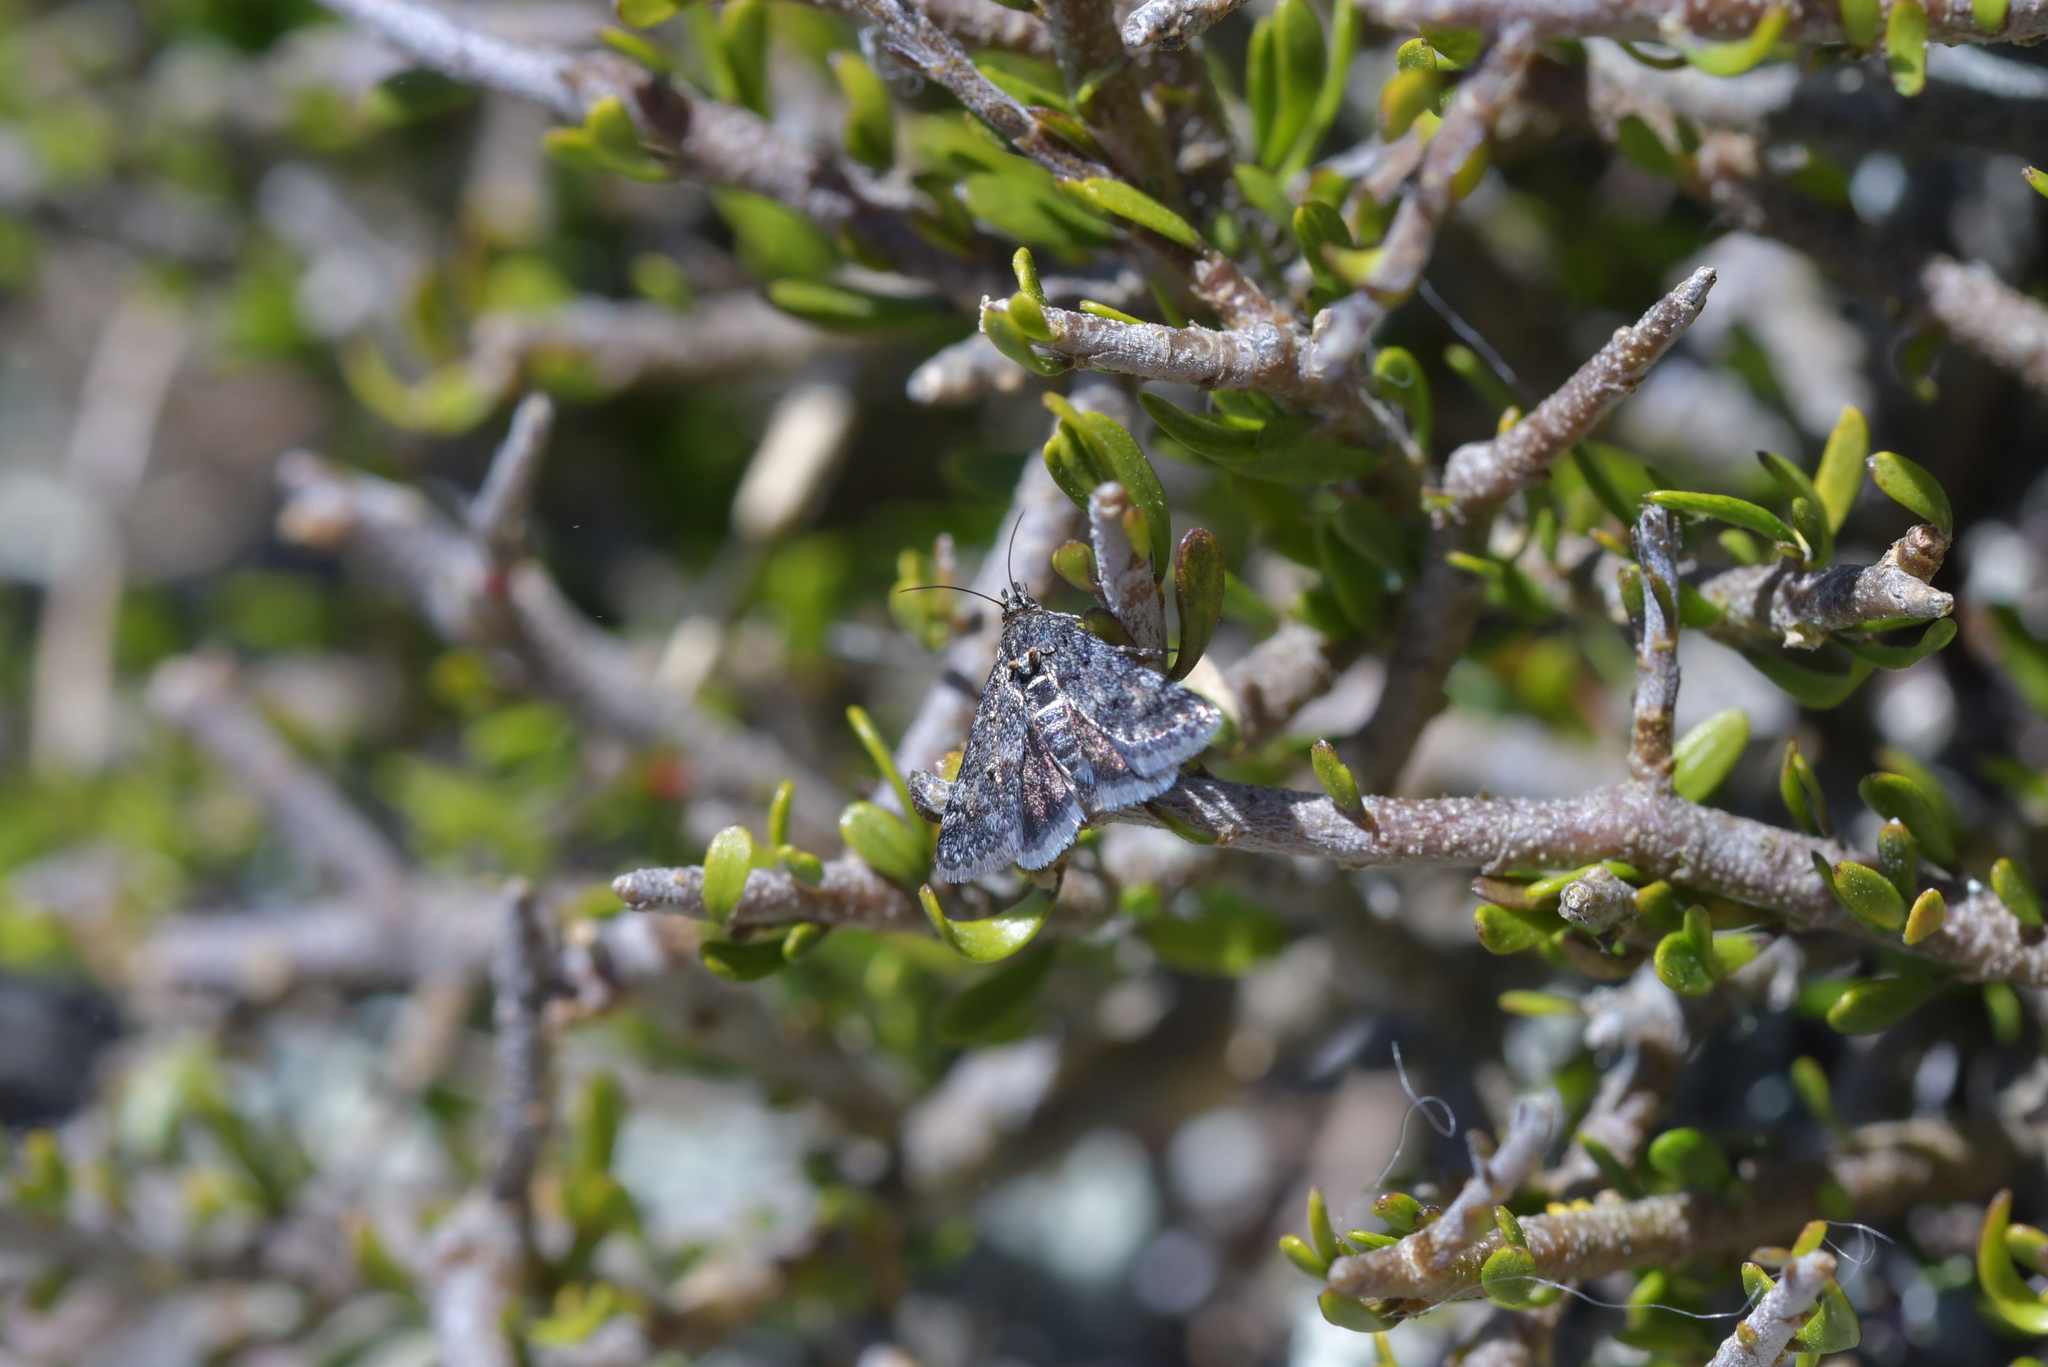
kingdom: Animalia
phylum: Arthropoda
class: Insecta
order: Lepidoptera
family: Crambidae
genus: Heliothela
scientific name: Heliothela atra
